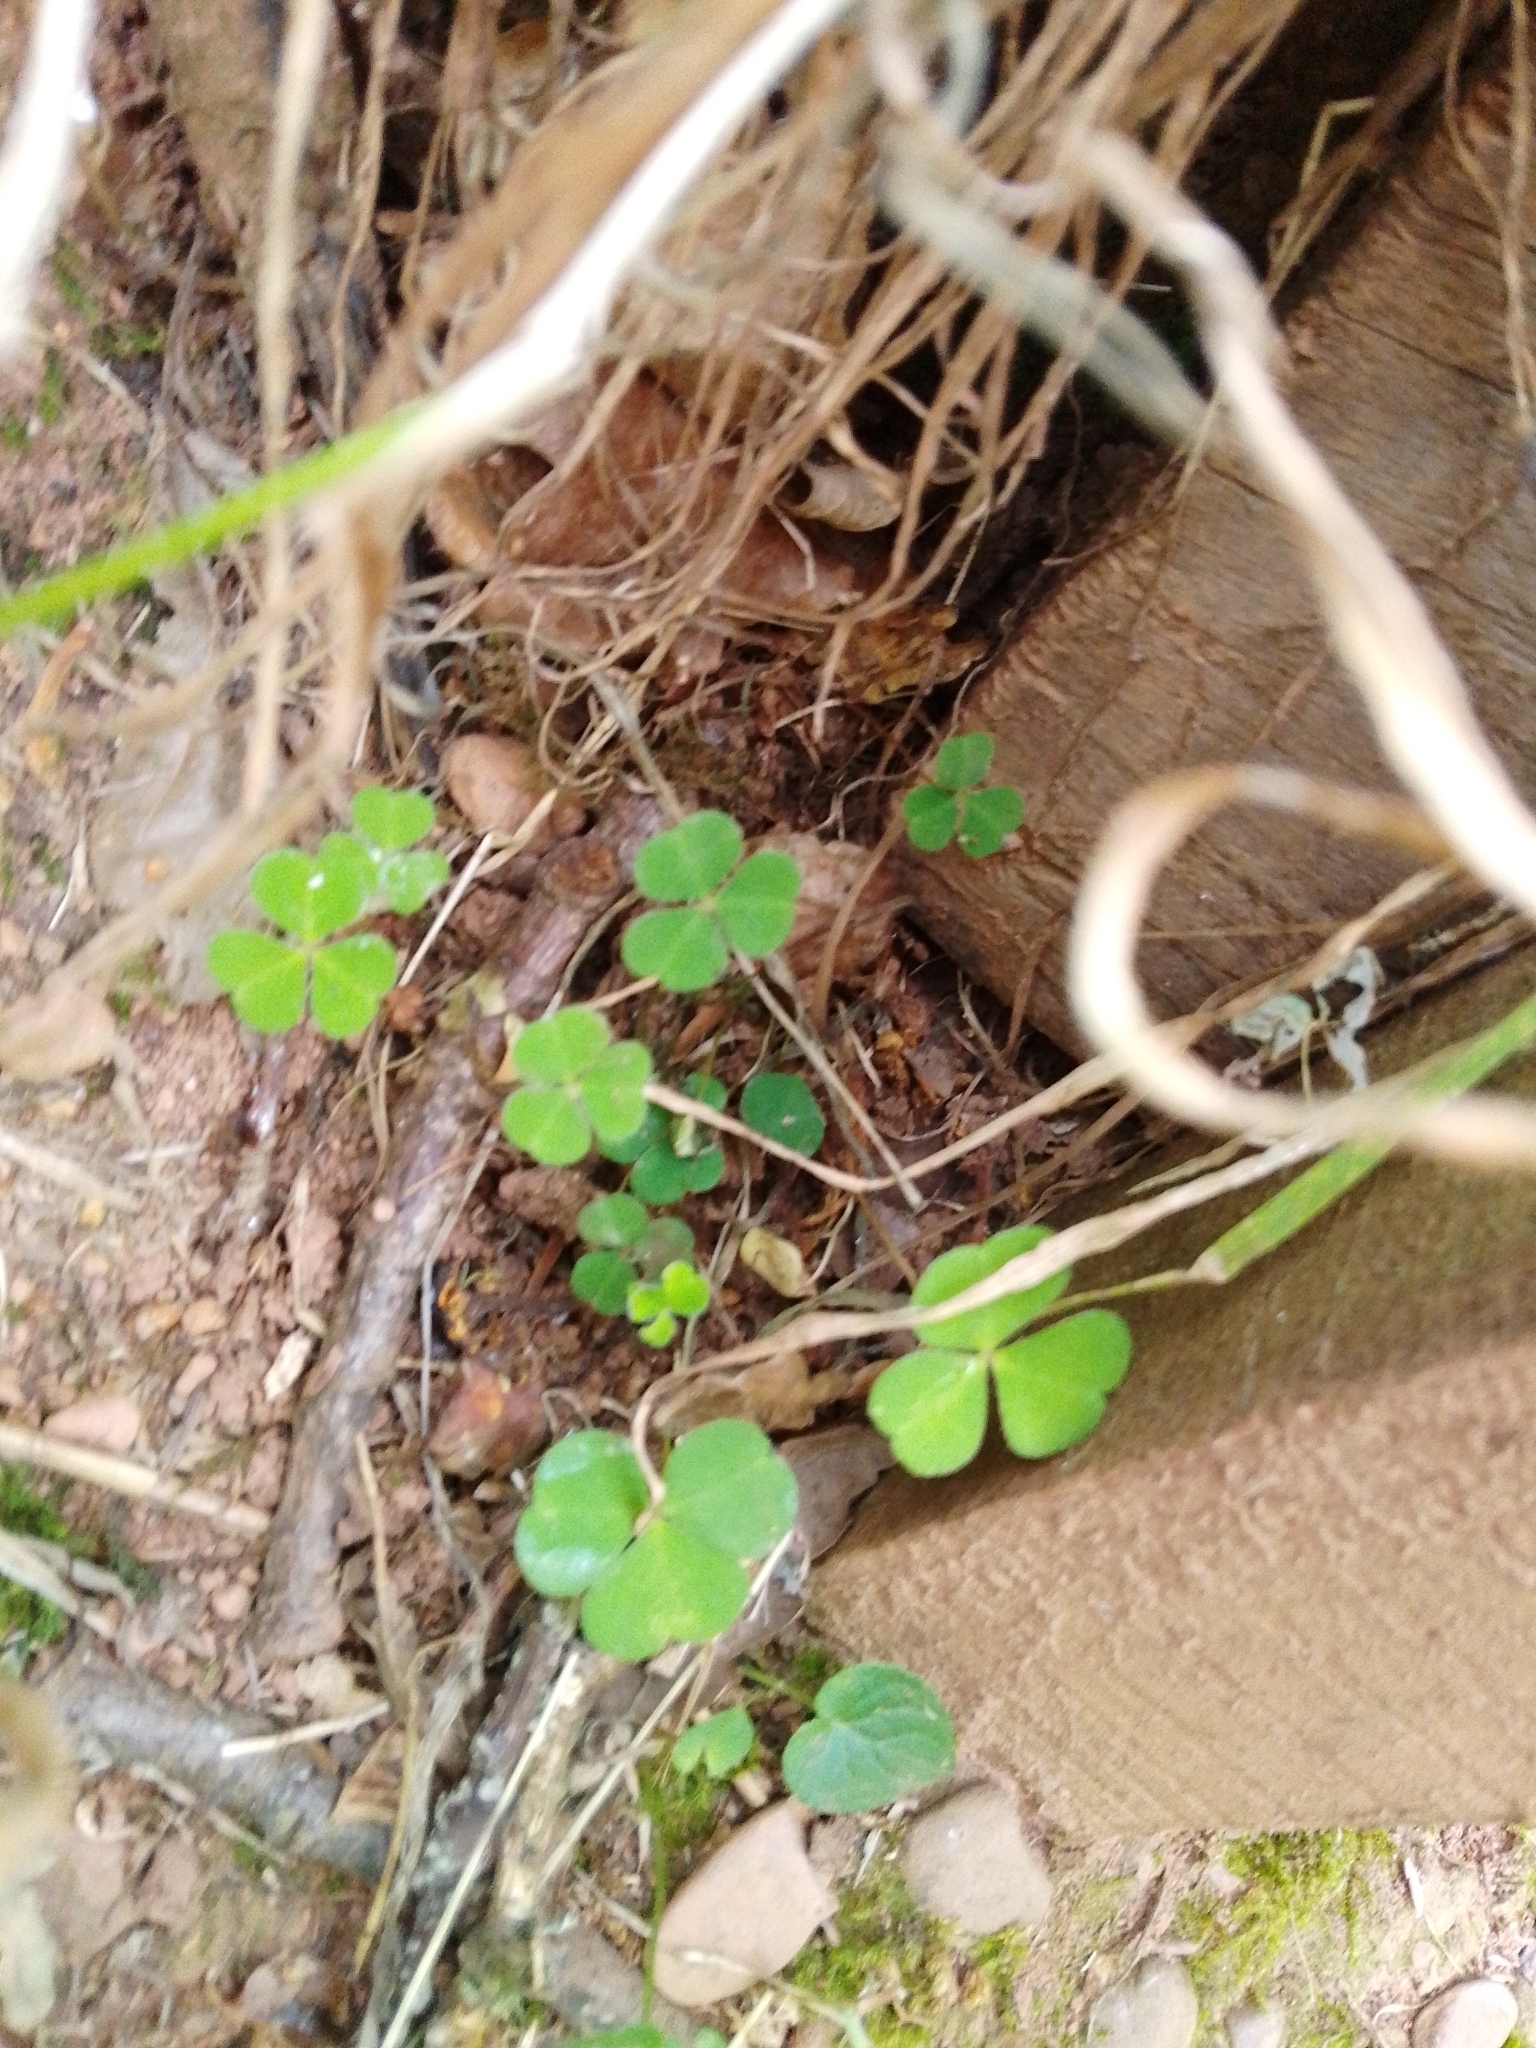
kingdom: Plantae
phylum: Tracheophyta
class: Magnoliopsida
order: Oxalidales
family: Oxalidaceae
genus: Oxalis
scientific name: Oxalis acetosella
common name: Wood-sorrel
